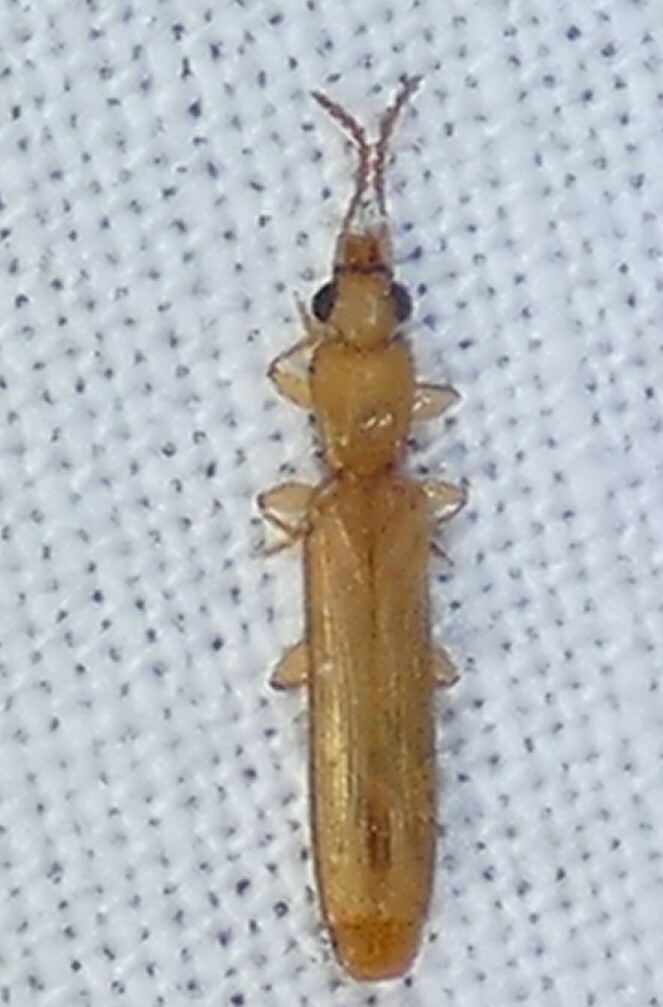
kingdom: Animalia
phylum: Arthropoda
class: Insecta
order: Coleoptera
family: Mycteridae
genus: Hemipeplus
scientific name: Hemipeplus marginipennis
